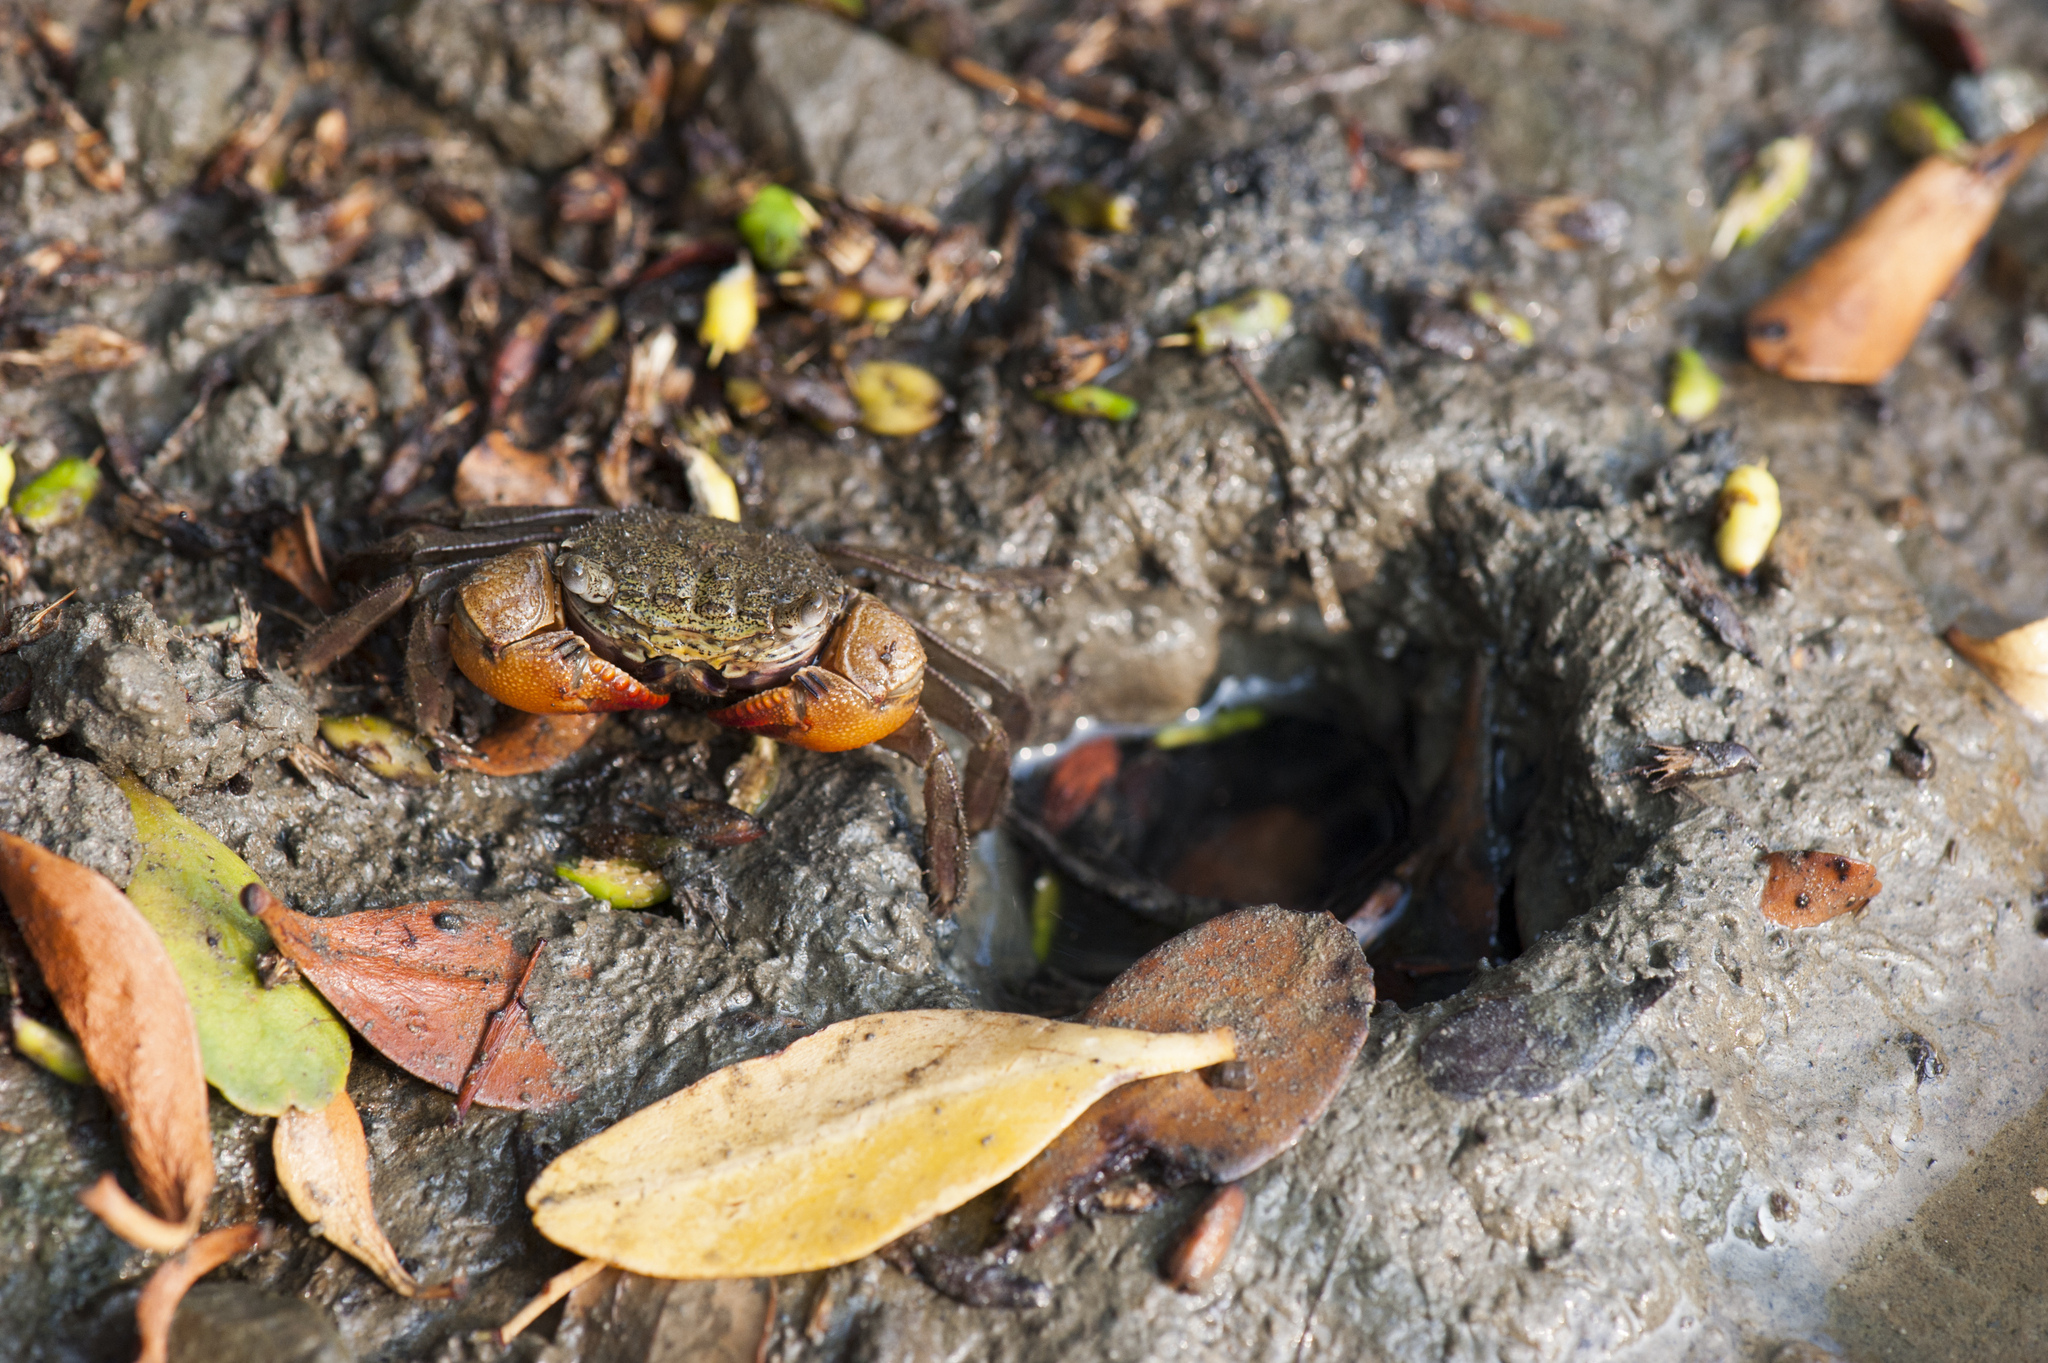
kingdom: Animalia
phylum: Arthropoda
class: Malacostraca
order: Decapoda
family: Sesarmidae
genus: Parasesarma
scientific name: Parasesarma bidens
